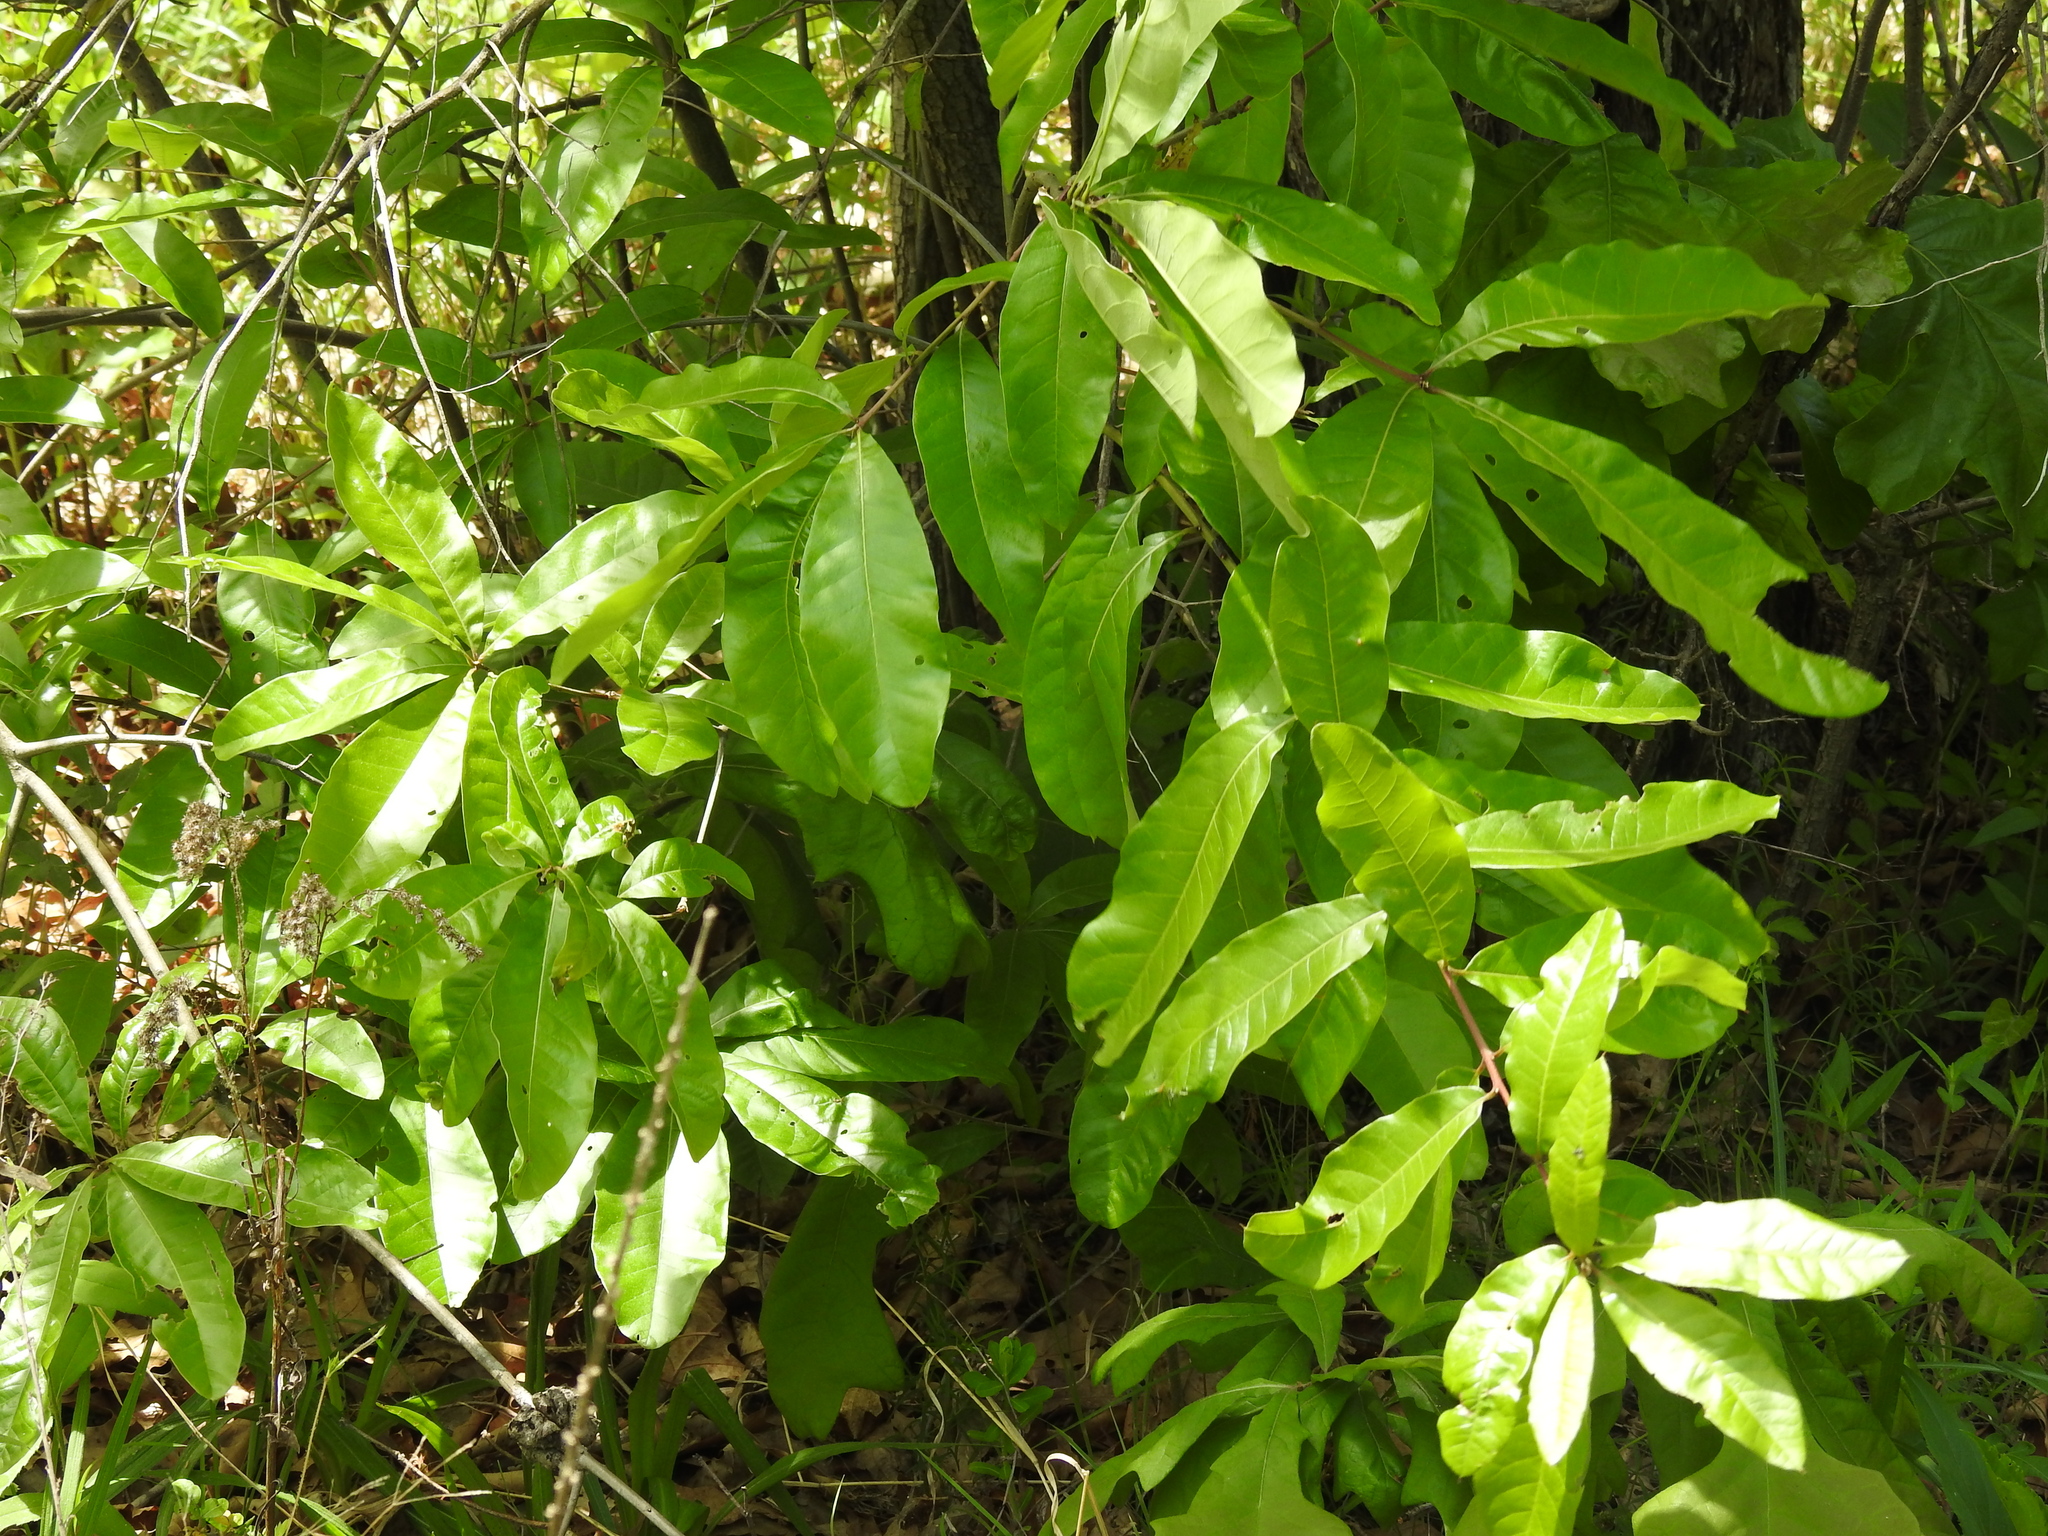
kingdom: Plantae
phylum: Tracheophyta
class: Magnoliopsida
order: Fagales
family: Fagaceae
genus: Quercus
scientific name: Quercus imbricaria
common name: Shingle oak
